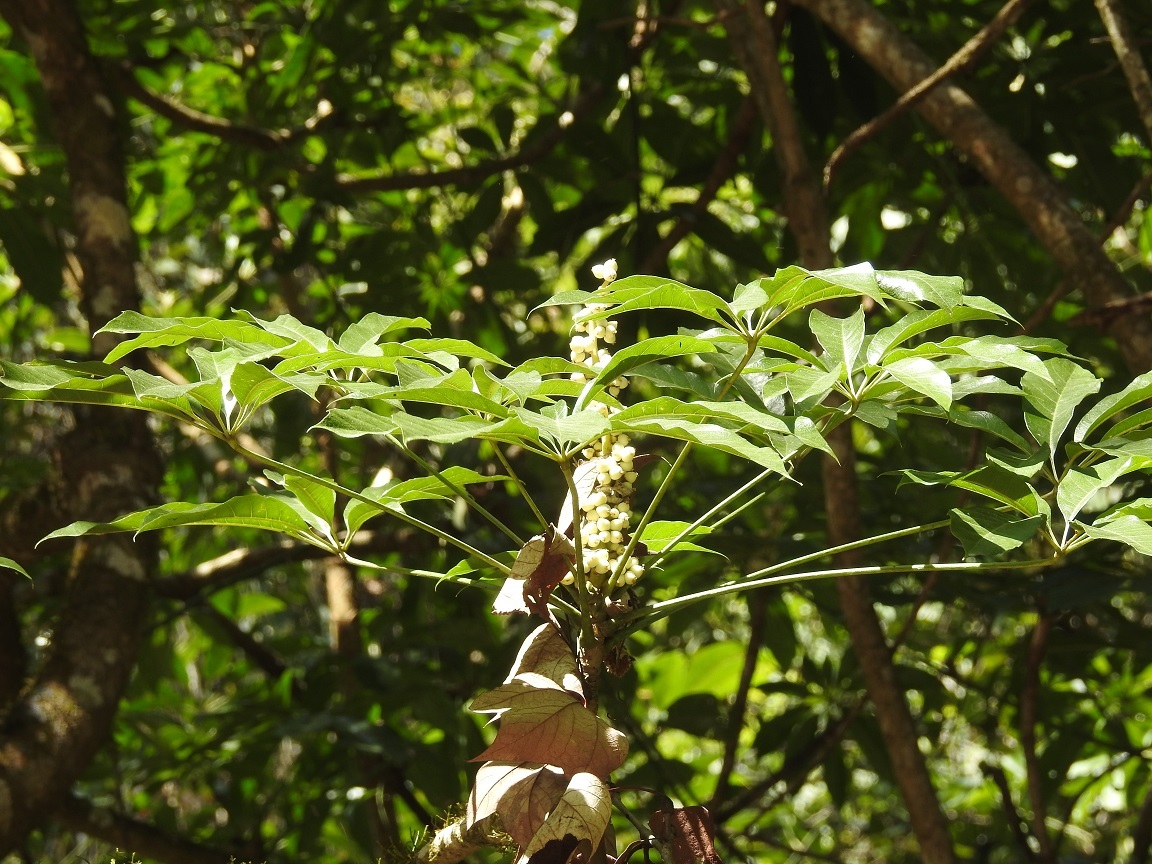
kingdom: Plantae
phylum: Tracheophyta
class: Magnoliopsida
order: Apiales
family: Araliaceae
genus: Oreopanax
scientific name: Oreopanax xalapensis
